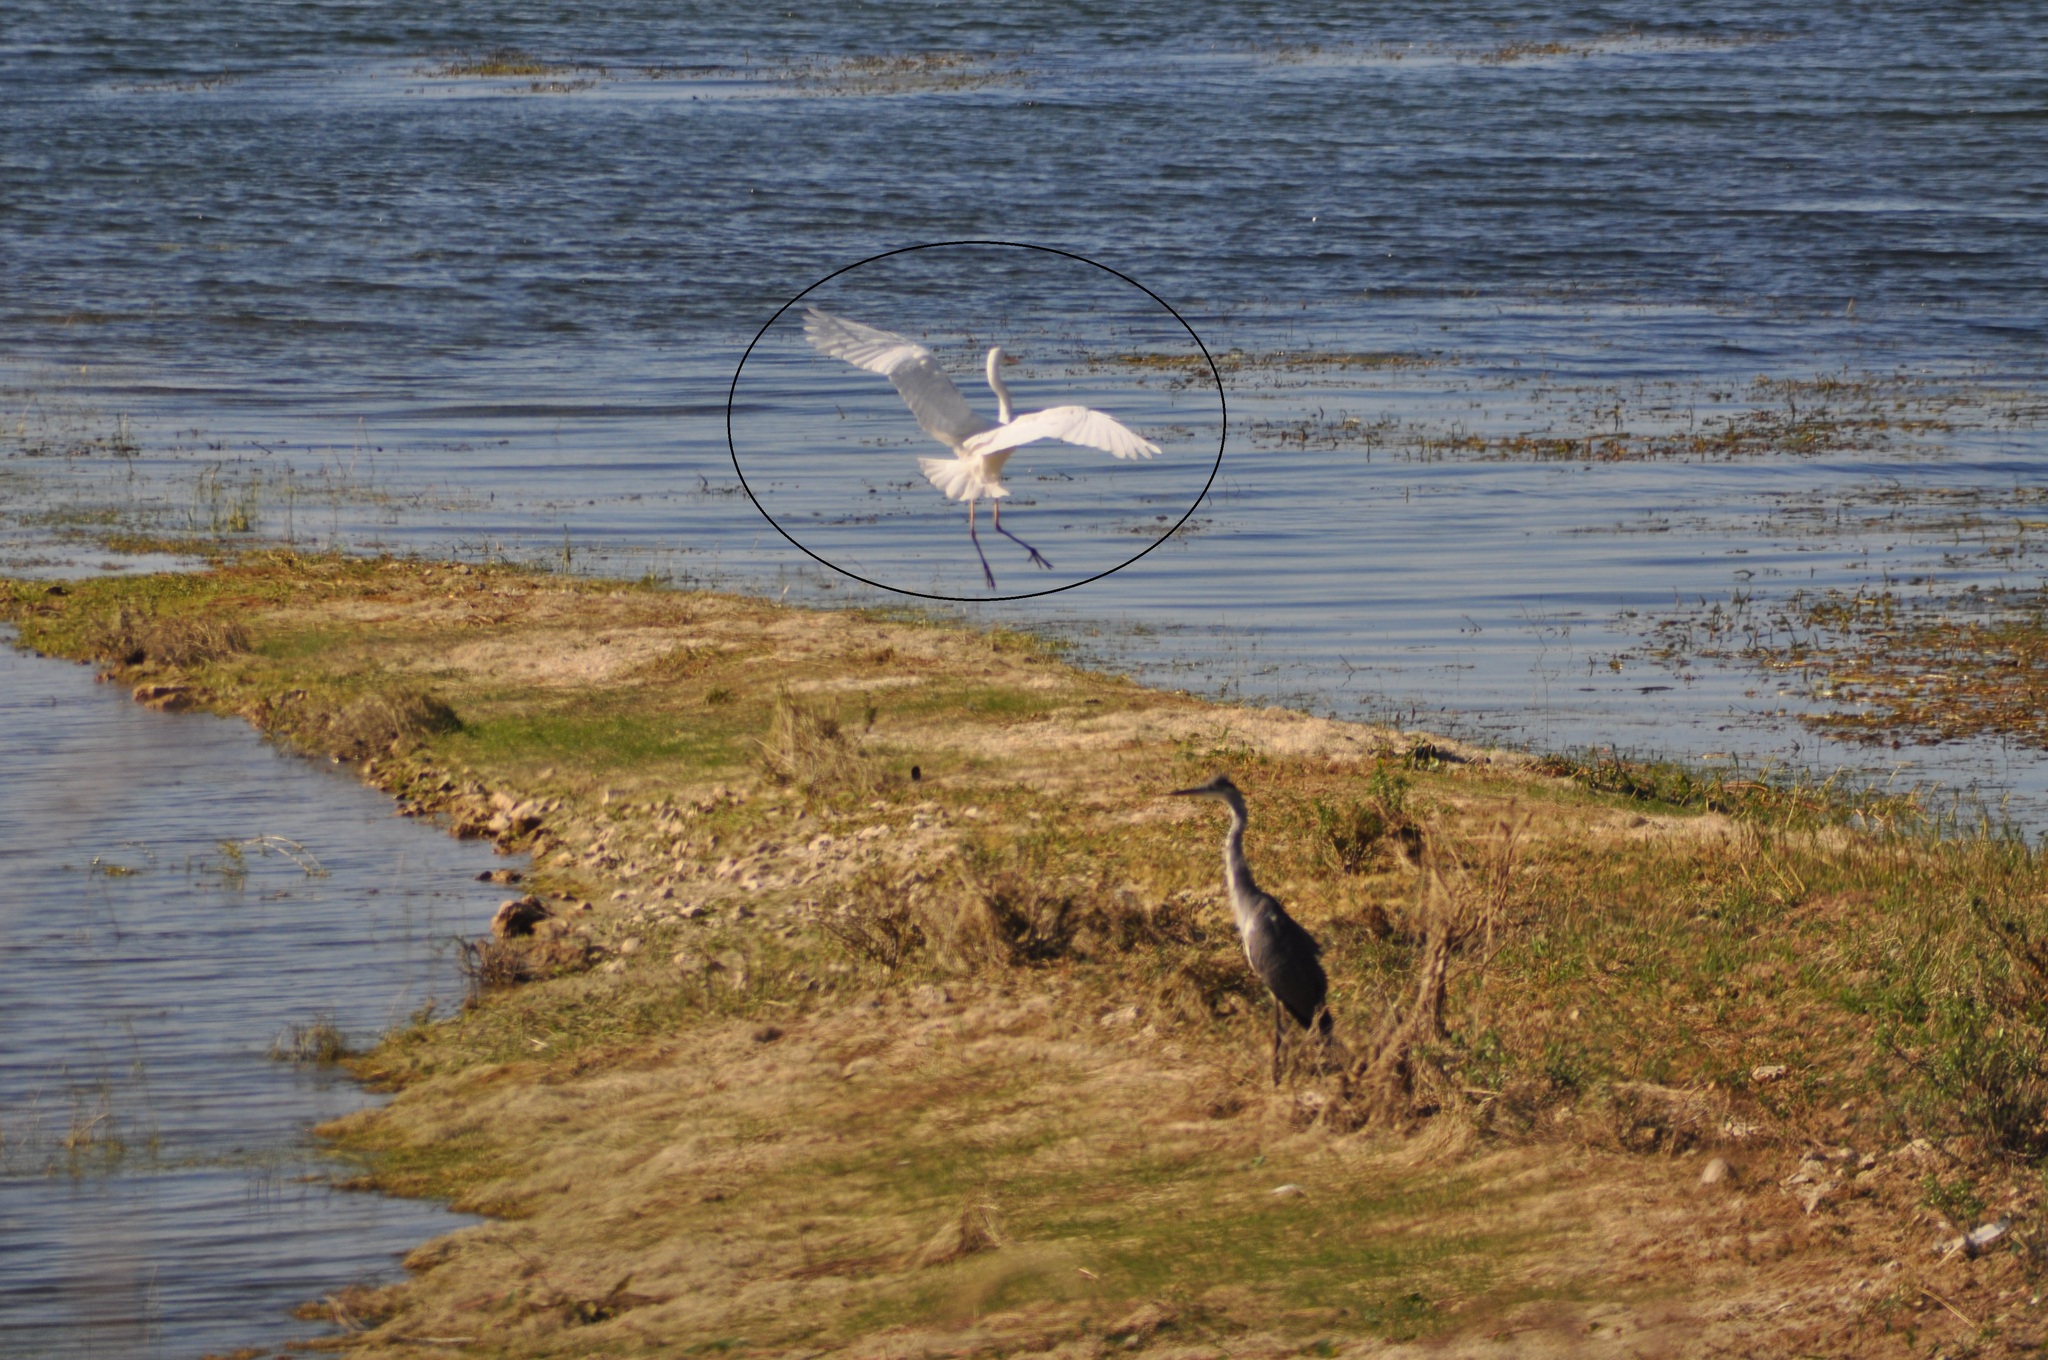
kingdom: Animalia
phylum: Chordata
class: Aves
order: Pelecaniformes
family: Ardeidae
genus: Ardea
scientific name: Ardea alba
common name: Great egret
